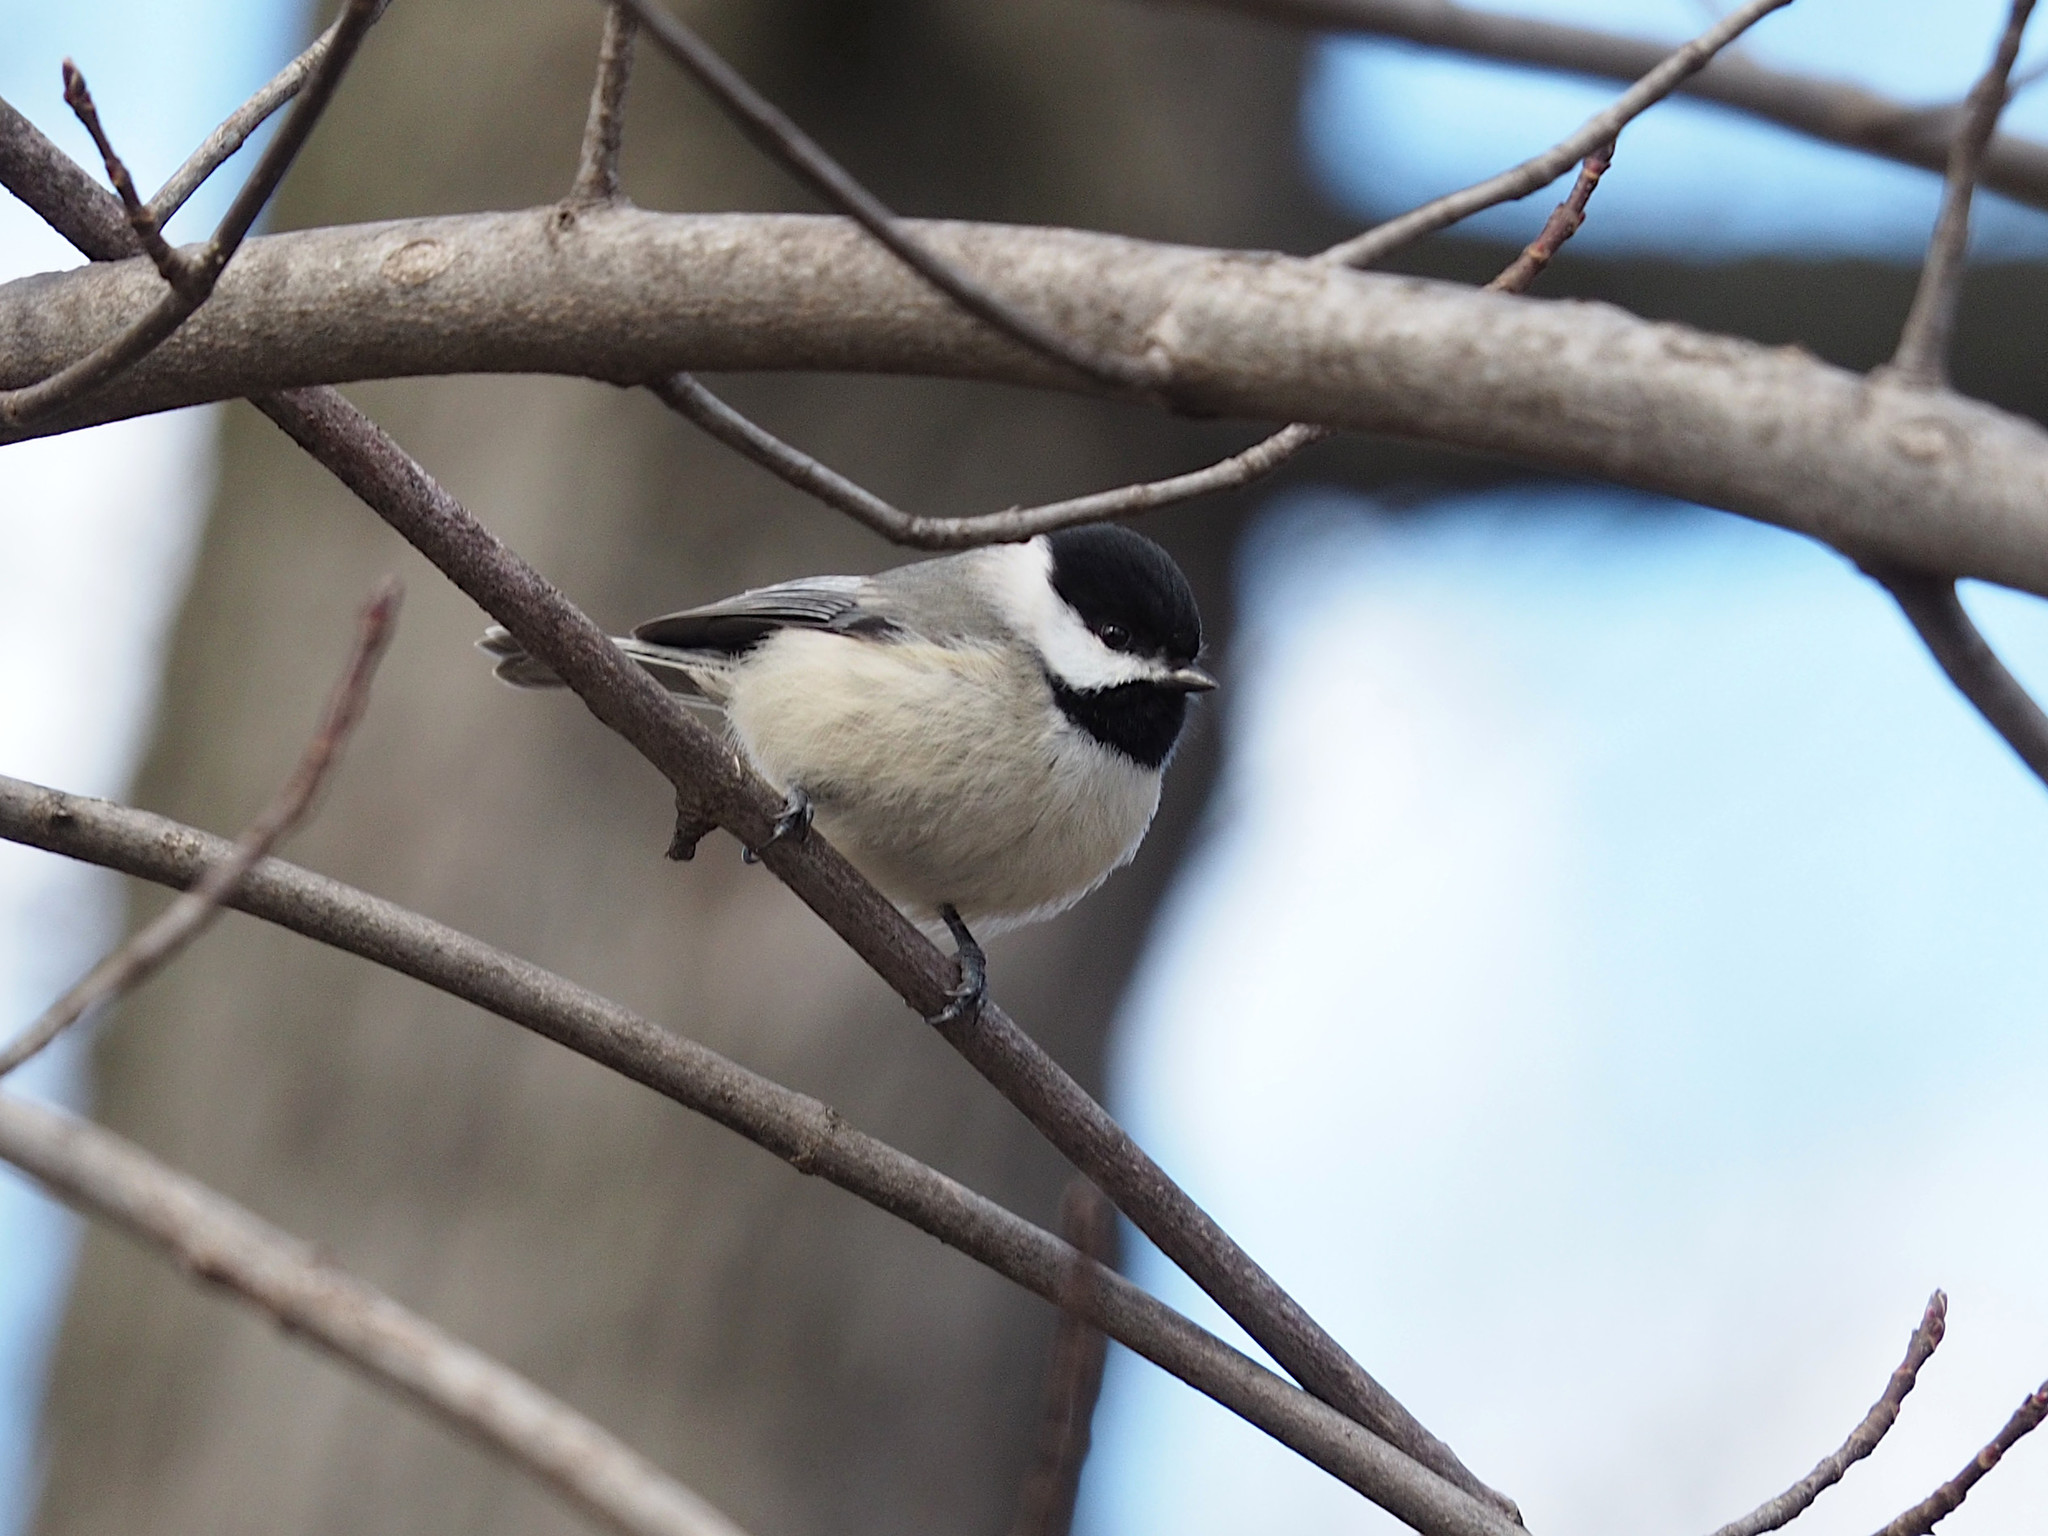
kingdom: Animalia
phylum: Chordata
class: Aves
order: Passeriformes
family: Paridae
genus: Poecile
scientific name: Poecile carolinensis
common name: Carolina chickadee
